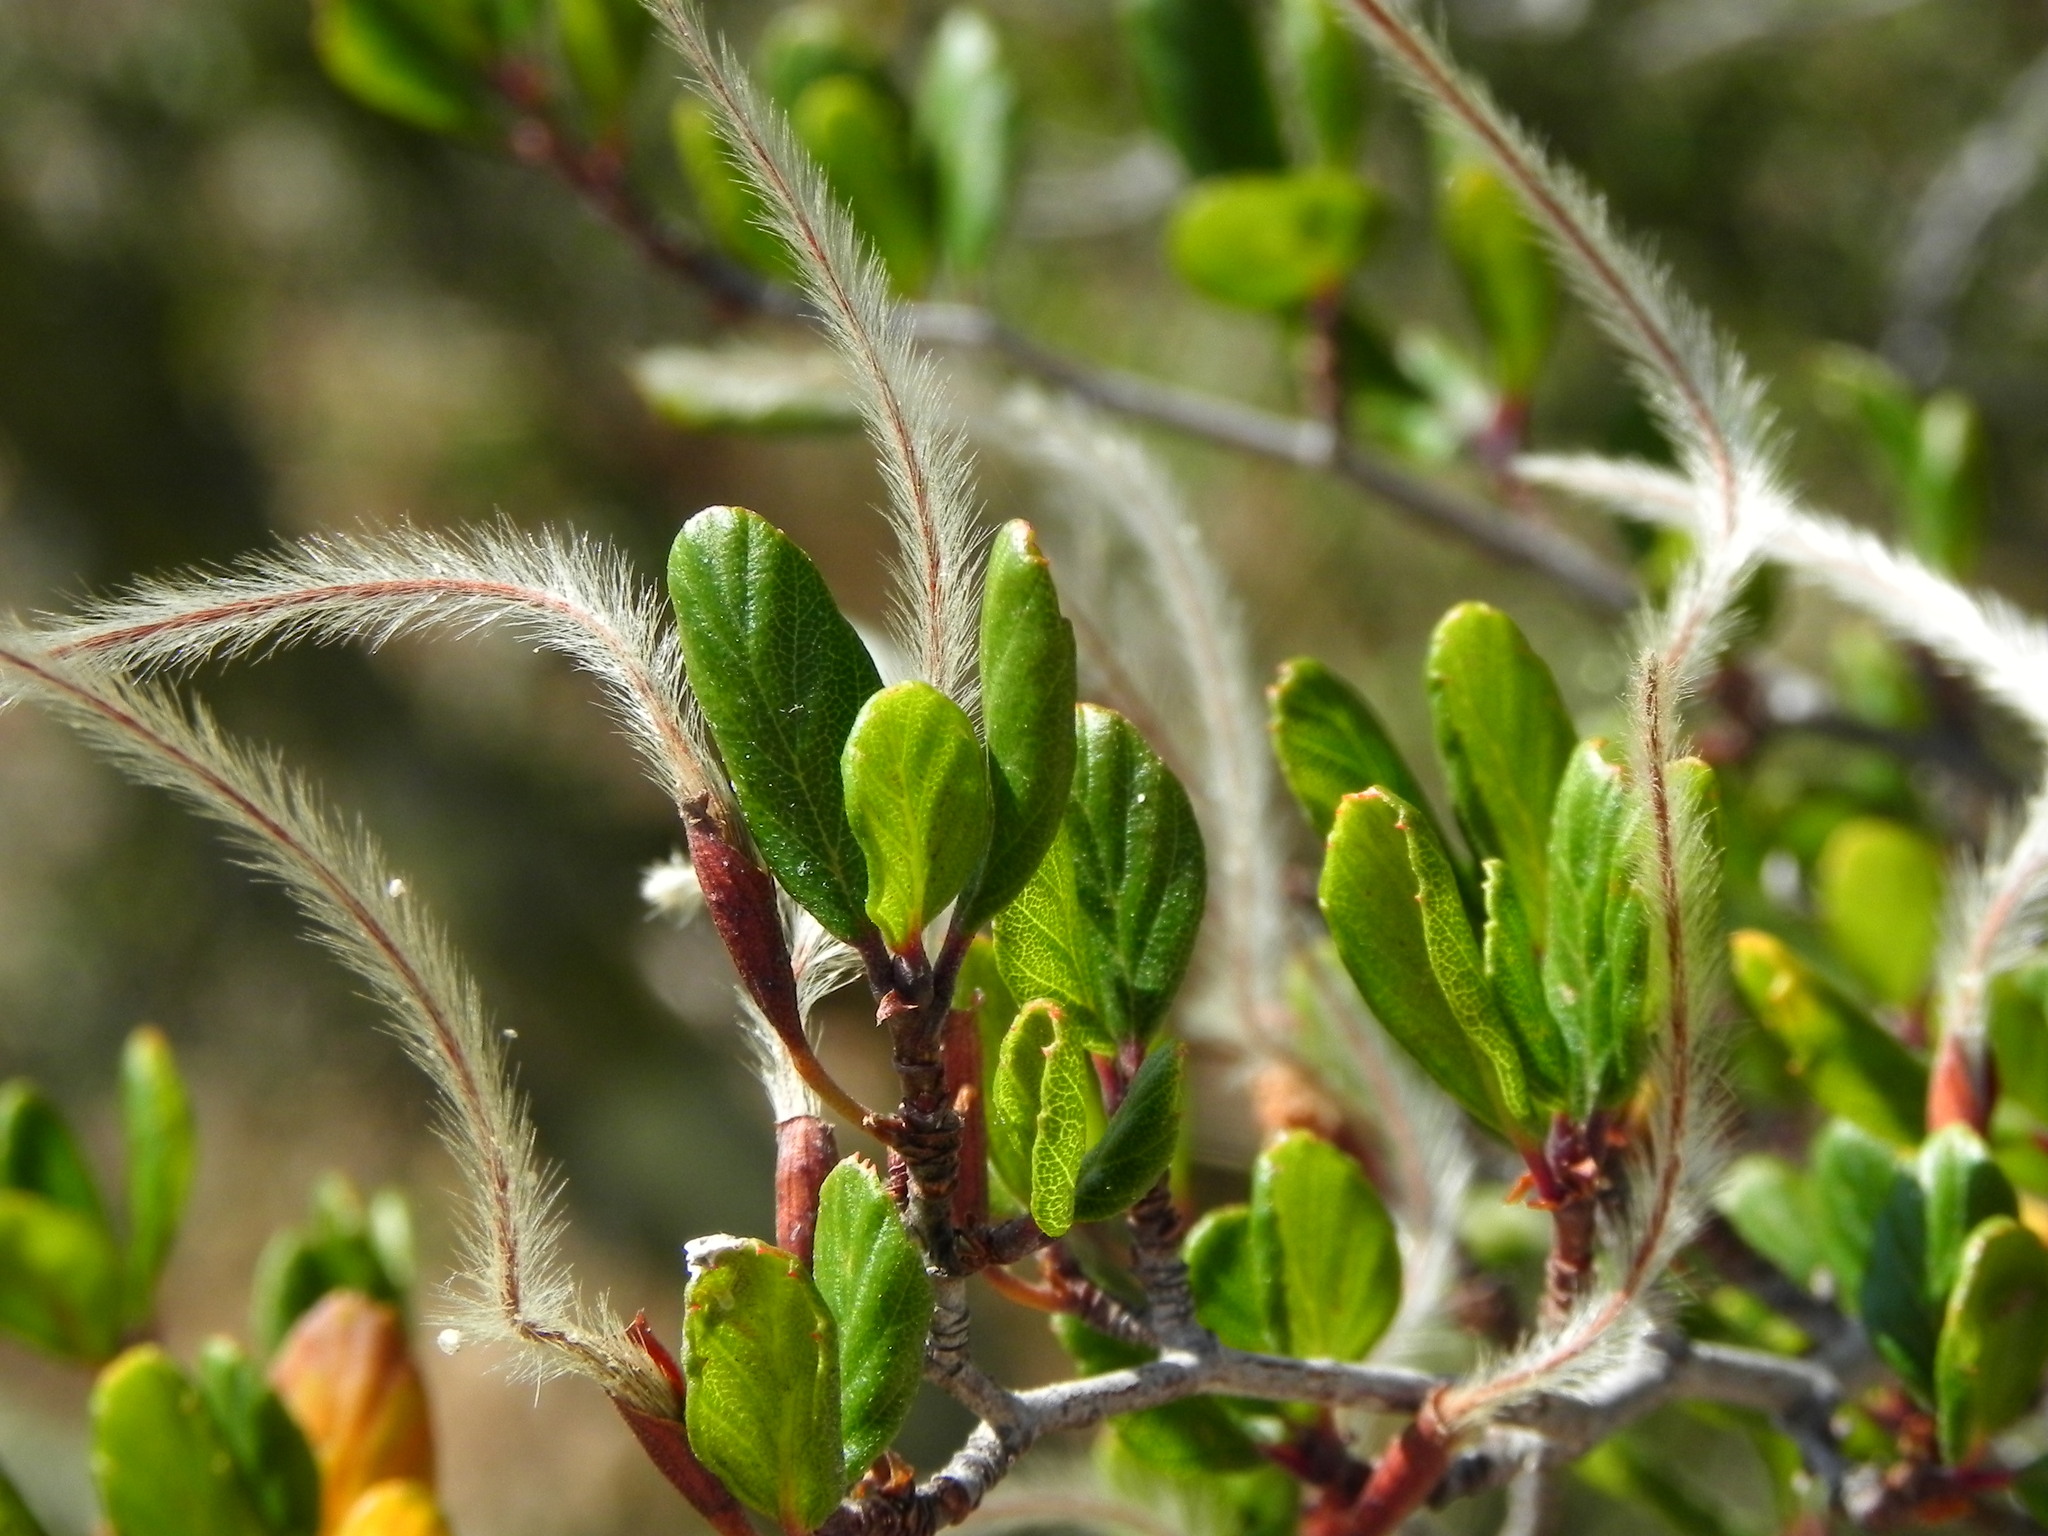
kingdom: Plantae
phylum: Tracheophyta
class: Magnoliopsida
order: Rosales
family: Rosaceae
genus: Cercocarpus
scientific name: Cercocarpus montanus
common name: Alder-leaf cercocarpus
